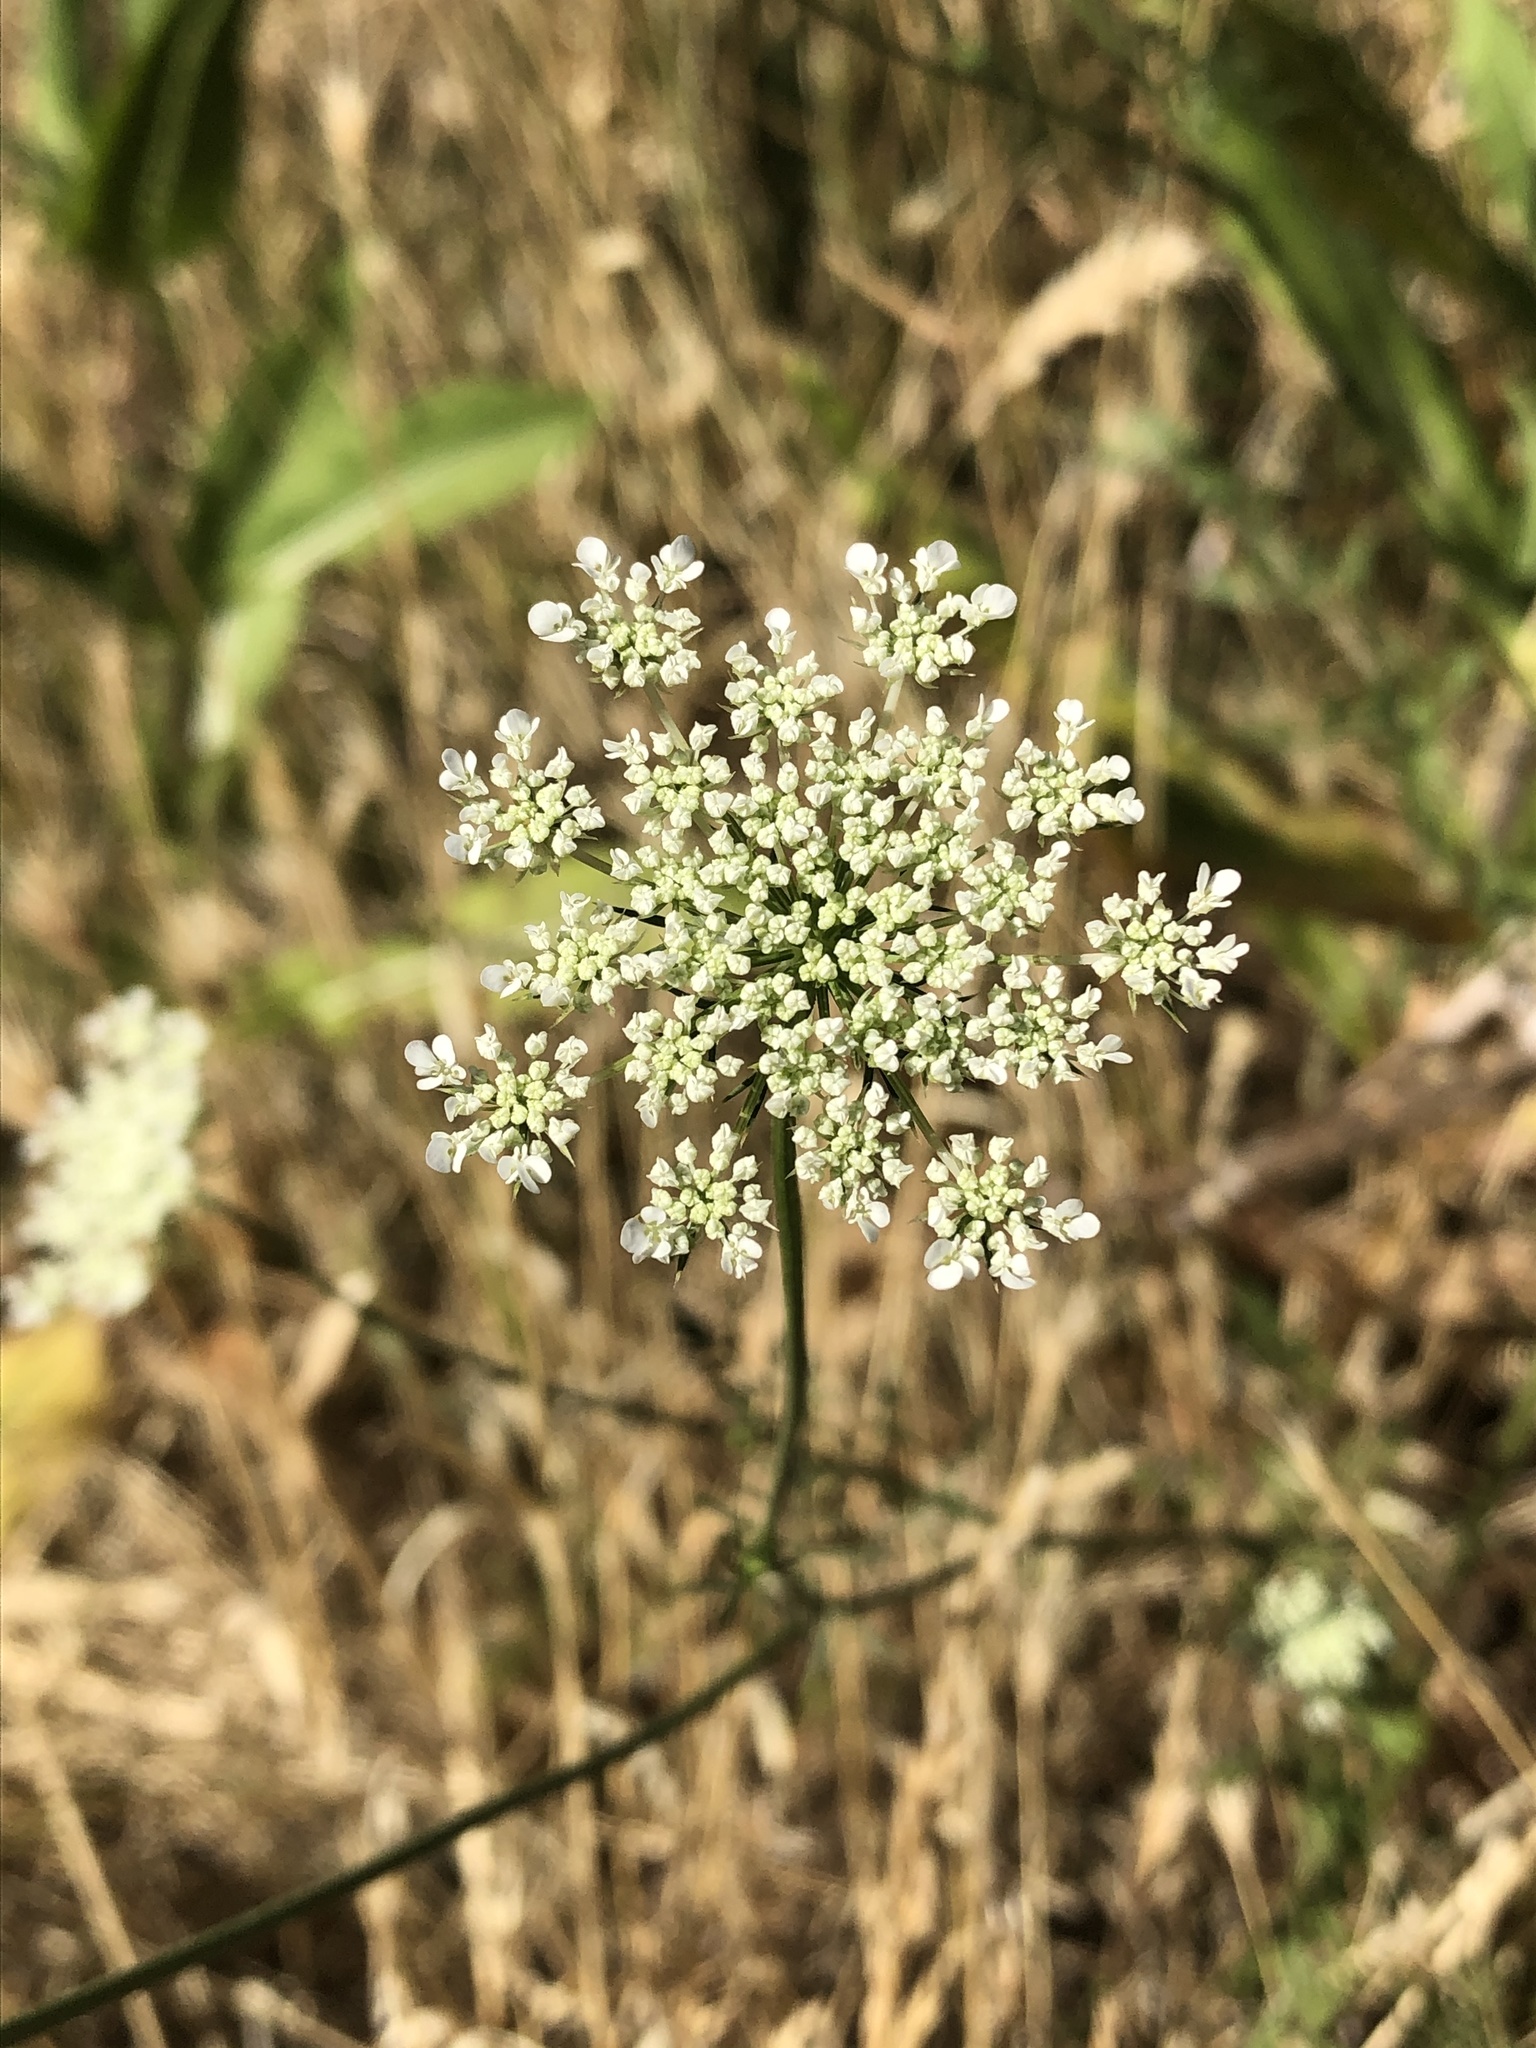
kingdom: Plantae
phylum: Tracheophyta
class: Magnoliopsida
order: Apiales
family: Apiaceae
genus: Daucus
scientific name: Daucus carota
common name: Wild carrot
